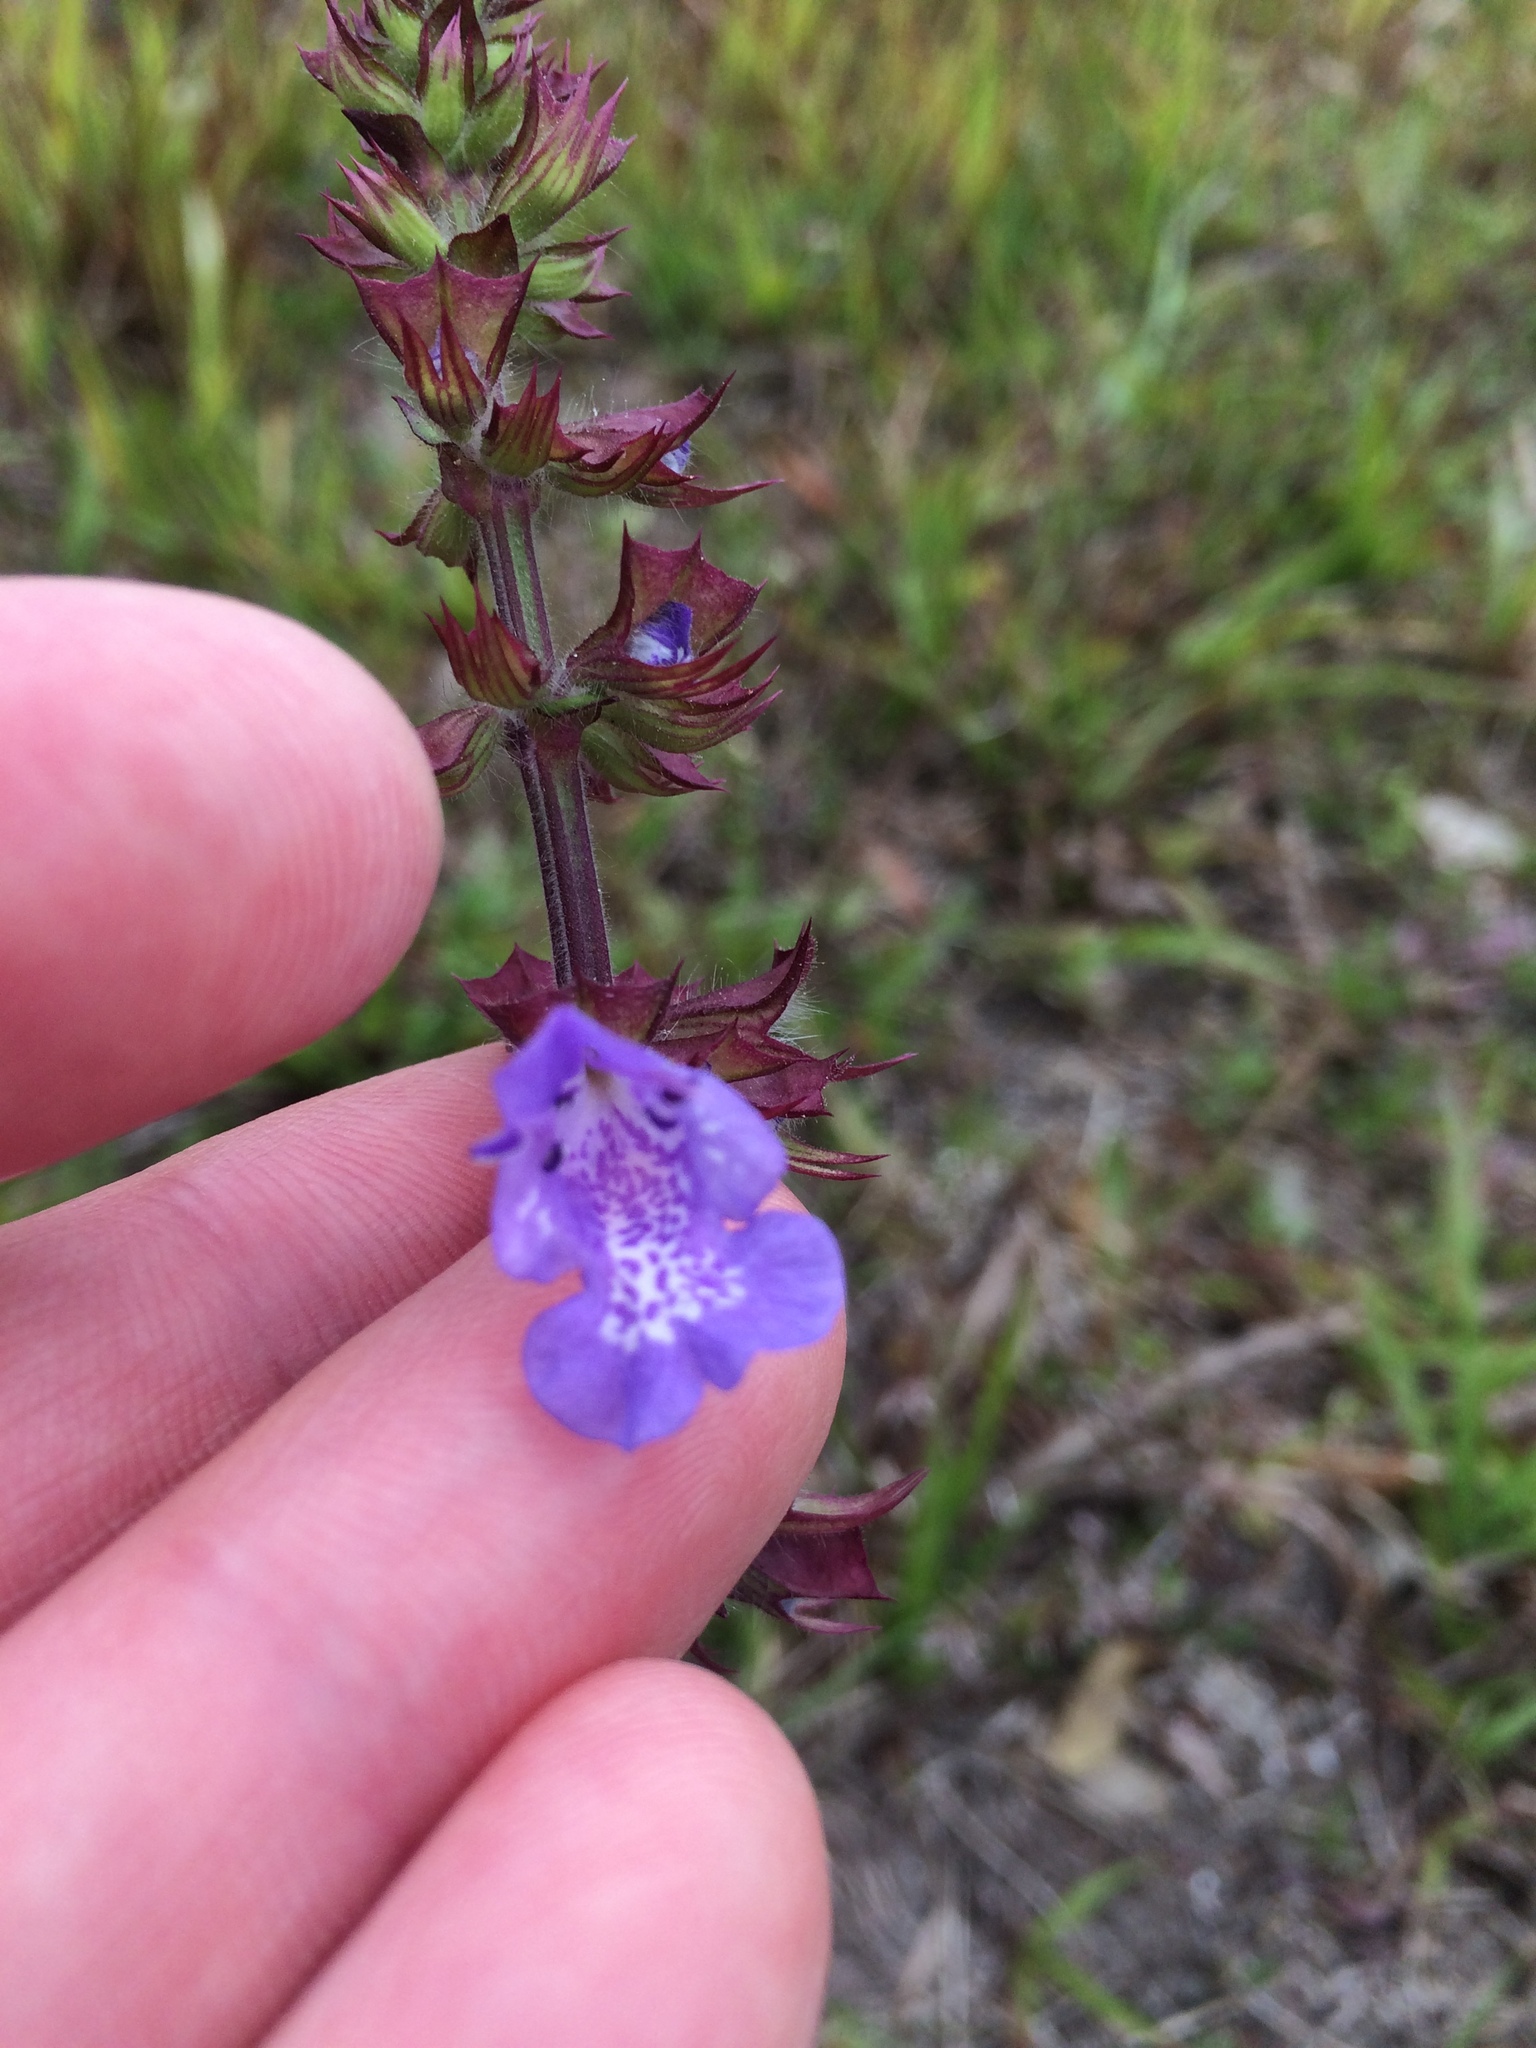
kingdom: Plantae
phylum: Tracheophyta
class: Magnoliopsida
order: Lamiales
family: Lamiaceae
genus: Salvia
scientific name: Salvia lyrata
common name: Cancerweed
